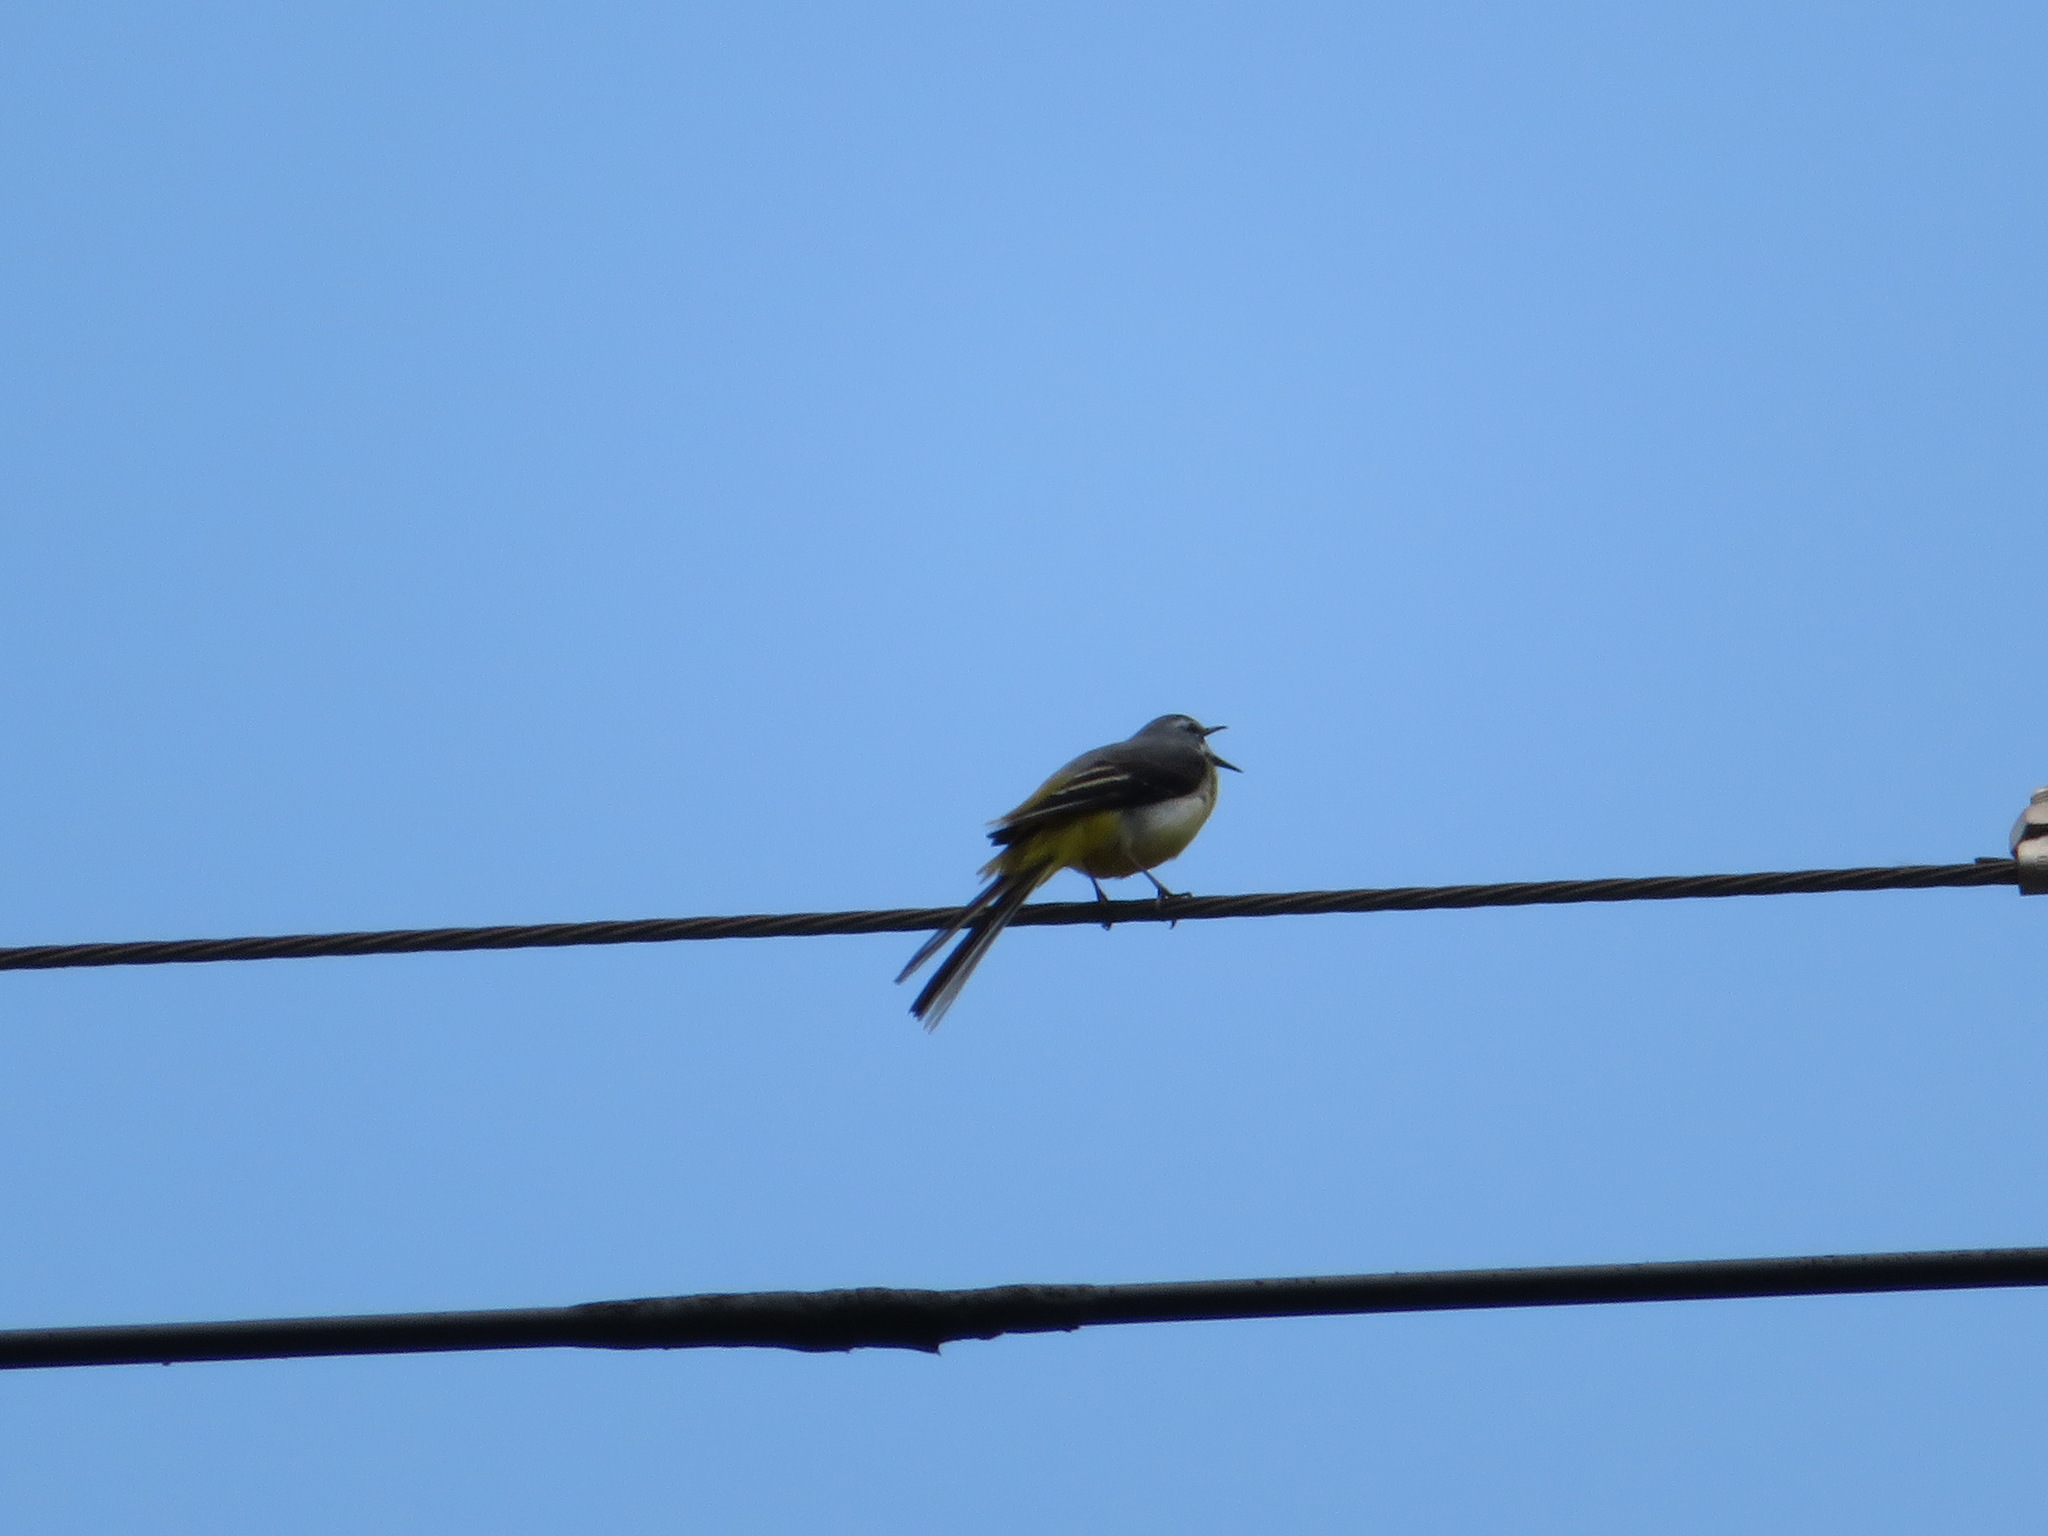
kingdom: Animalia
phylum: Chordata
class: Aves
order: Passeriformes
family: Motacillidae
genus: Motacilla
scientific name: Motacilla cinerea
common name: Grey wagtail
